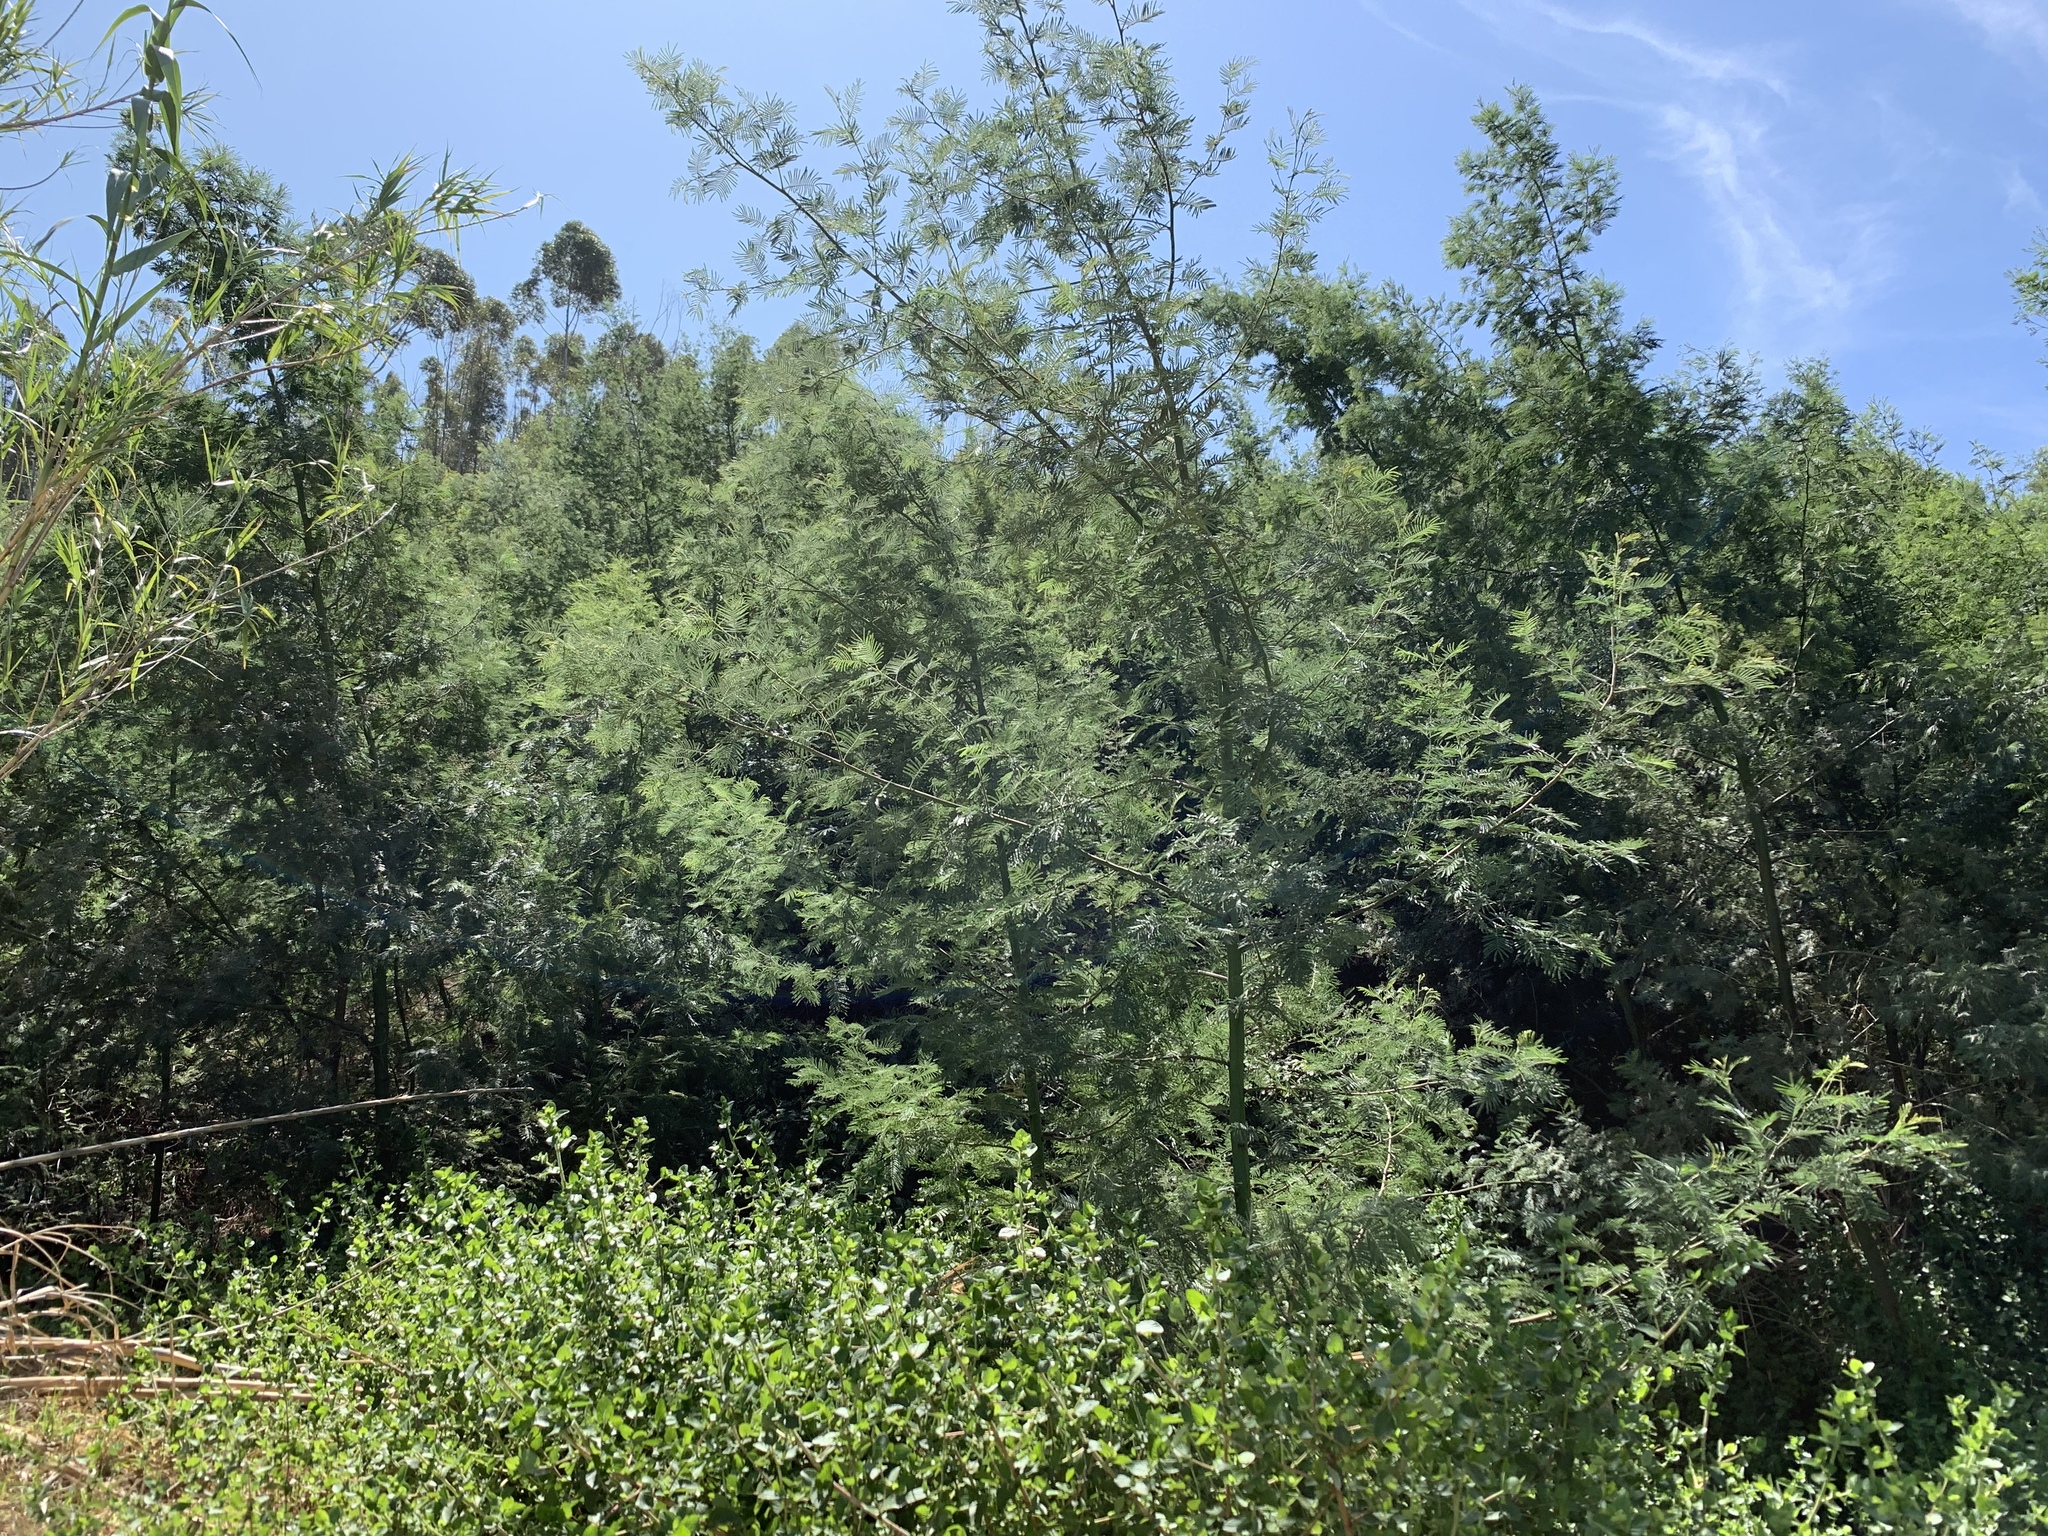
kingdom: Plantae
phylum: Tracheophyta
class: Magnoliopsida
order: Fabales
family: Fabaceae
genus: Acacia
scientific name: Acacia mearnsii
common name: Black wattle
